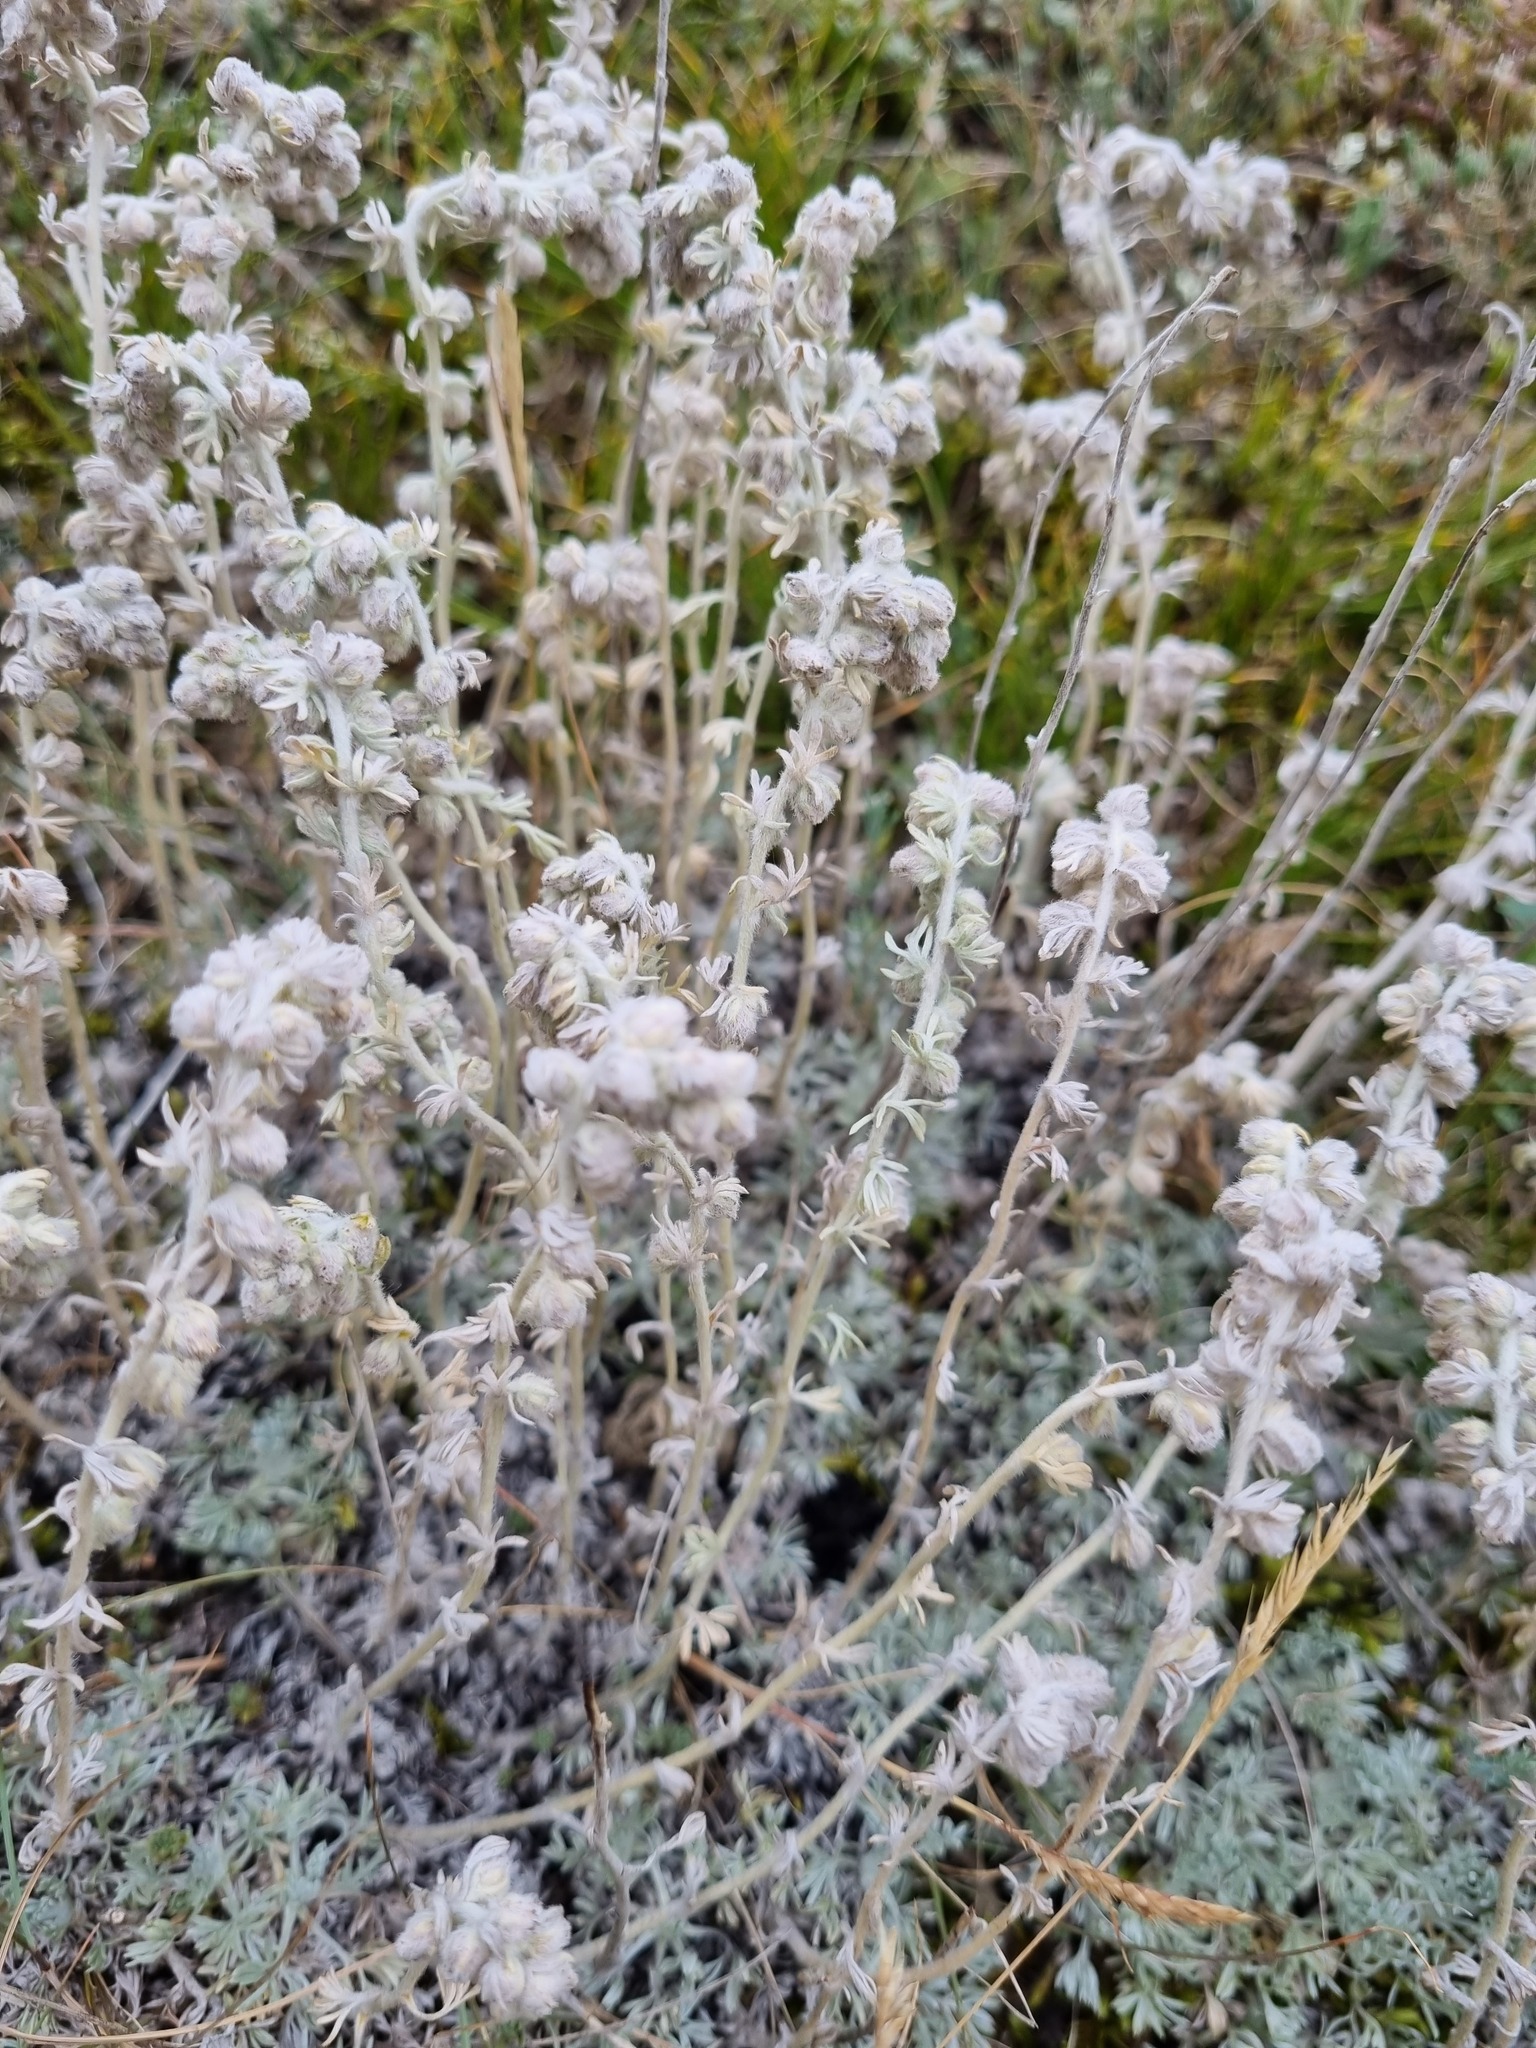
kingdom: Plantae
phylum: Tracheophyta
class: Magnoliopsida
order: Asterales
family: Asteraceae
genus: Artemisia
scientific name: Artemisia alpina
